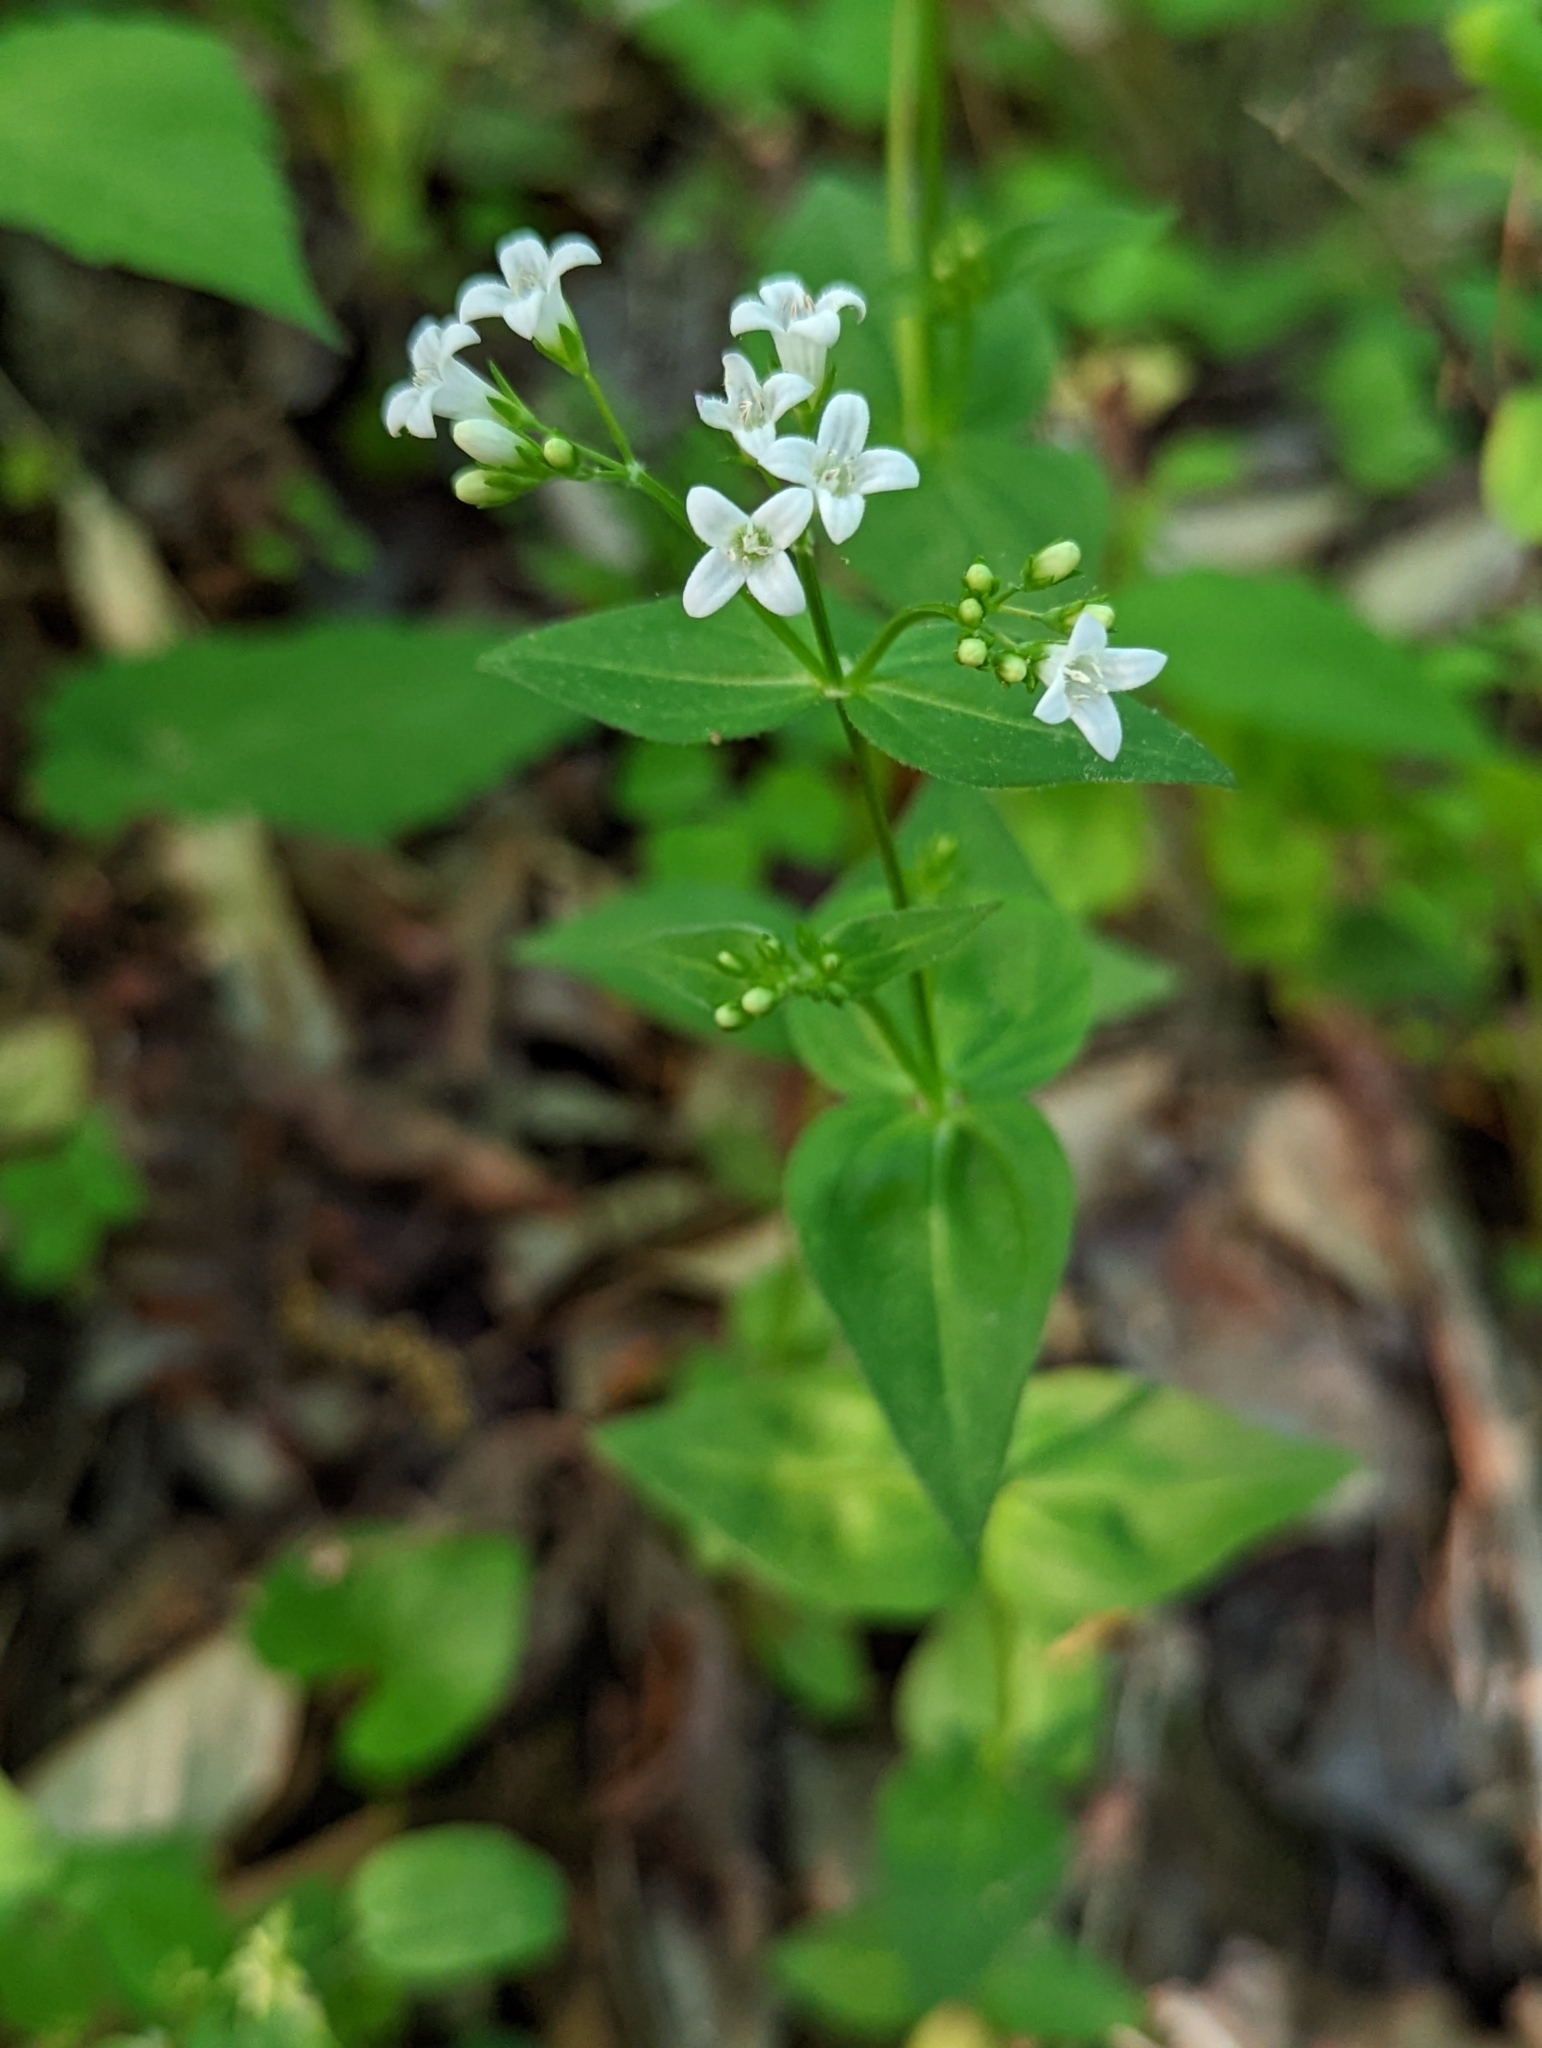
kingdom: Plantae
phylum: Tracheophyta
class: Magnoliopsida
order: Gentianales
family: Rubiaceae
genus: Houstonia
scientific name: Houstonia purpurea
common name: Summer bluet
